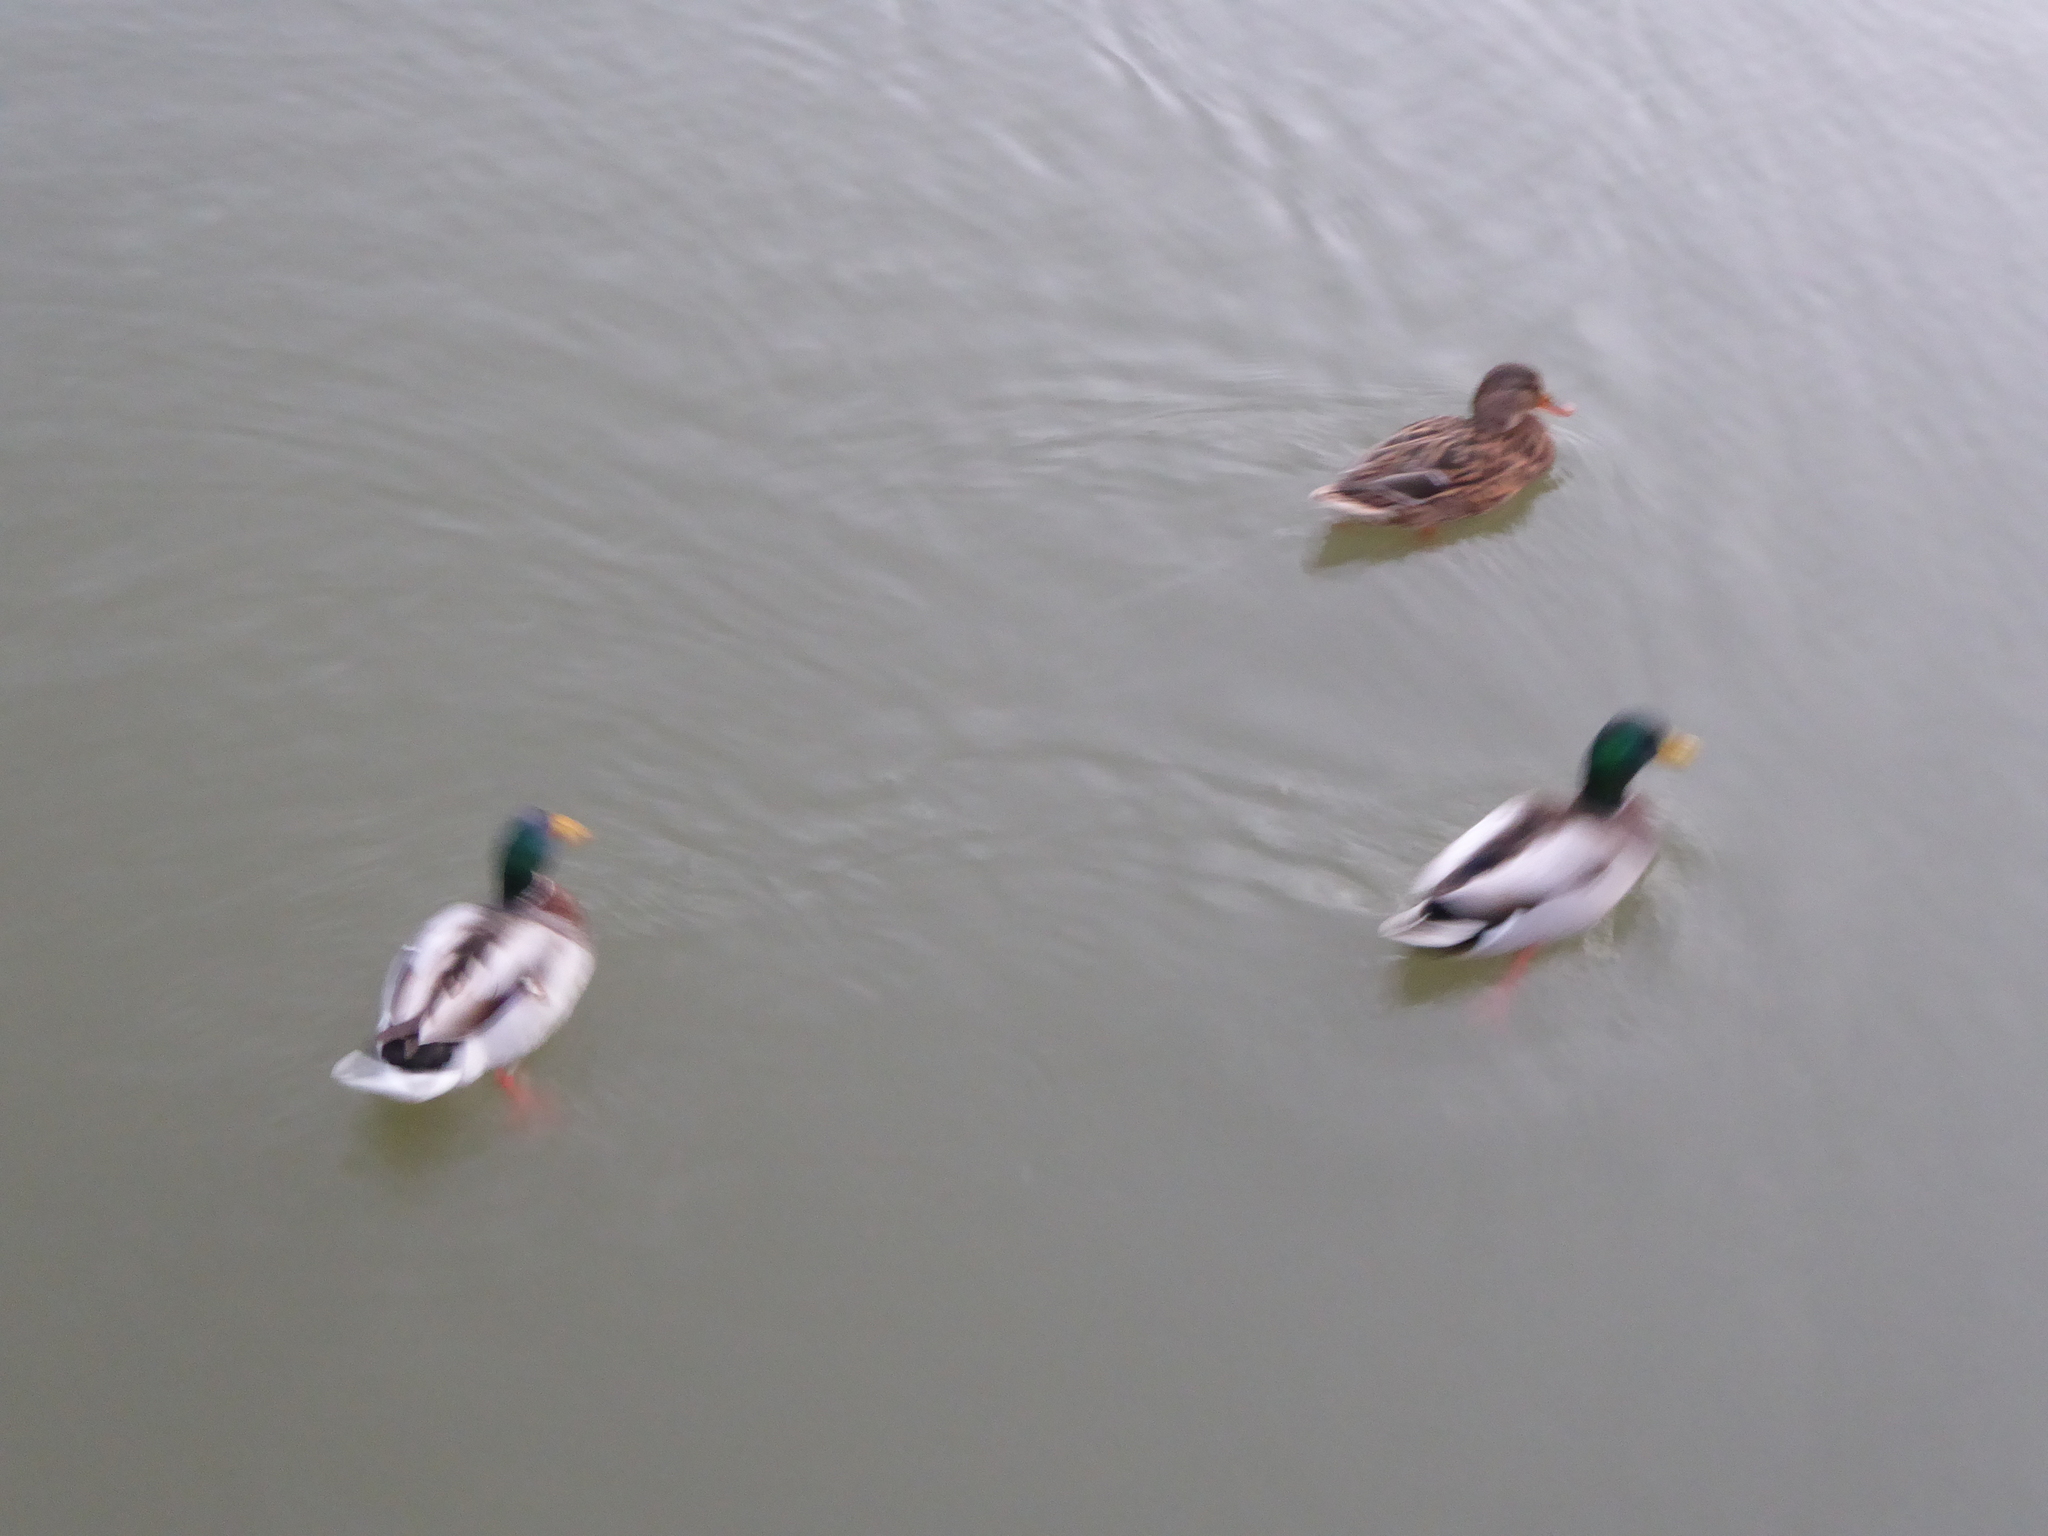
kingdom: Animalia
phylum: Chordata
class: Aves
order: Anseriformes
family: Anatidae
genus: Anas
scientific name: Anas platyrhynchos
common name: Mallard
